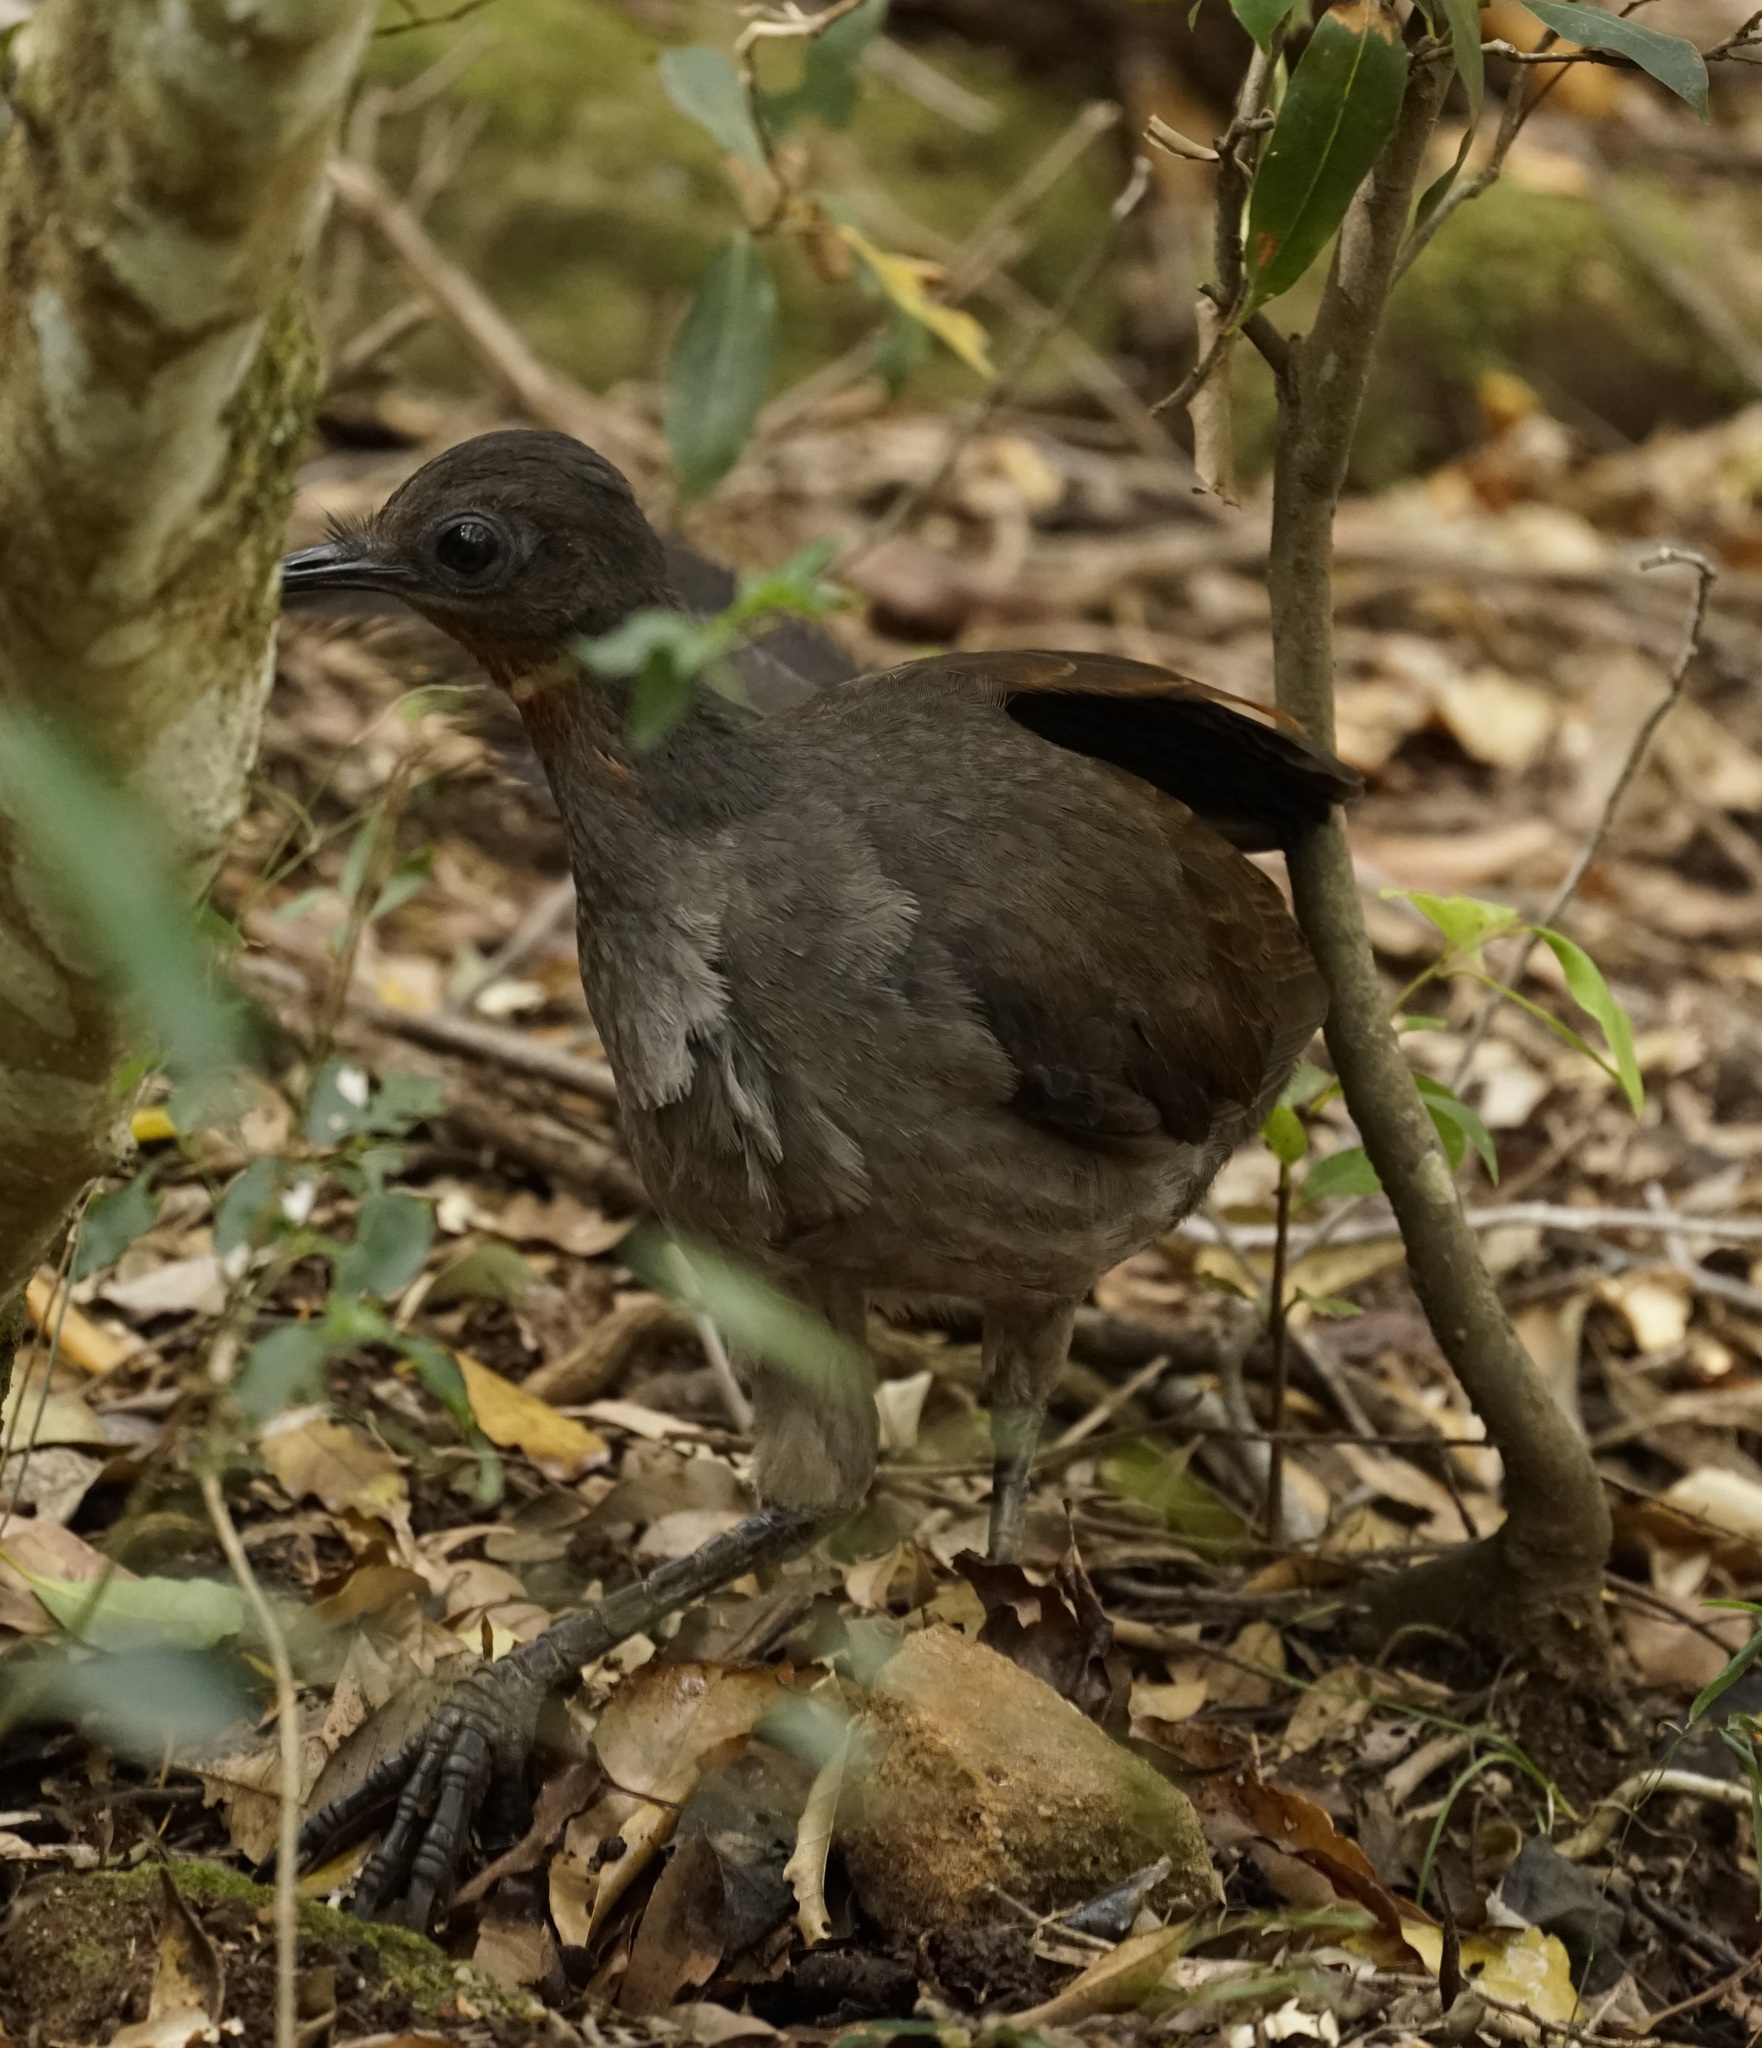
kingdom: Animalia
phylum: Chordata
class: Aves
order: Passeriformes
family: Menuridae
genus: Menura
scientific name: Menura novaehollandiae
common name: Superb lyrebird
